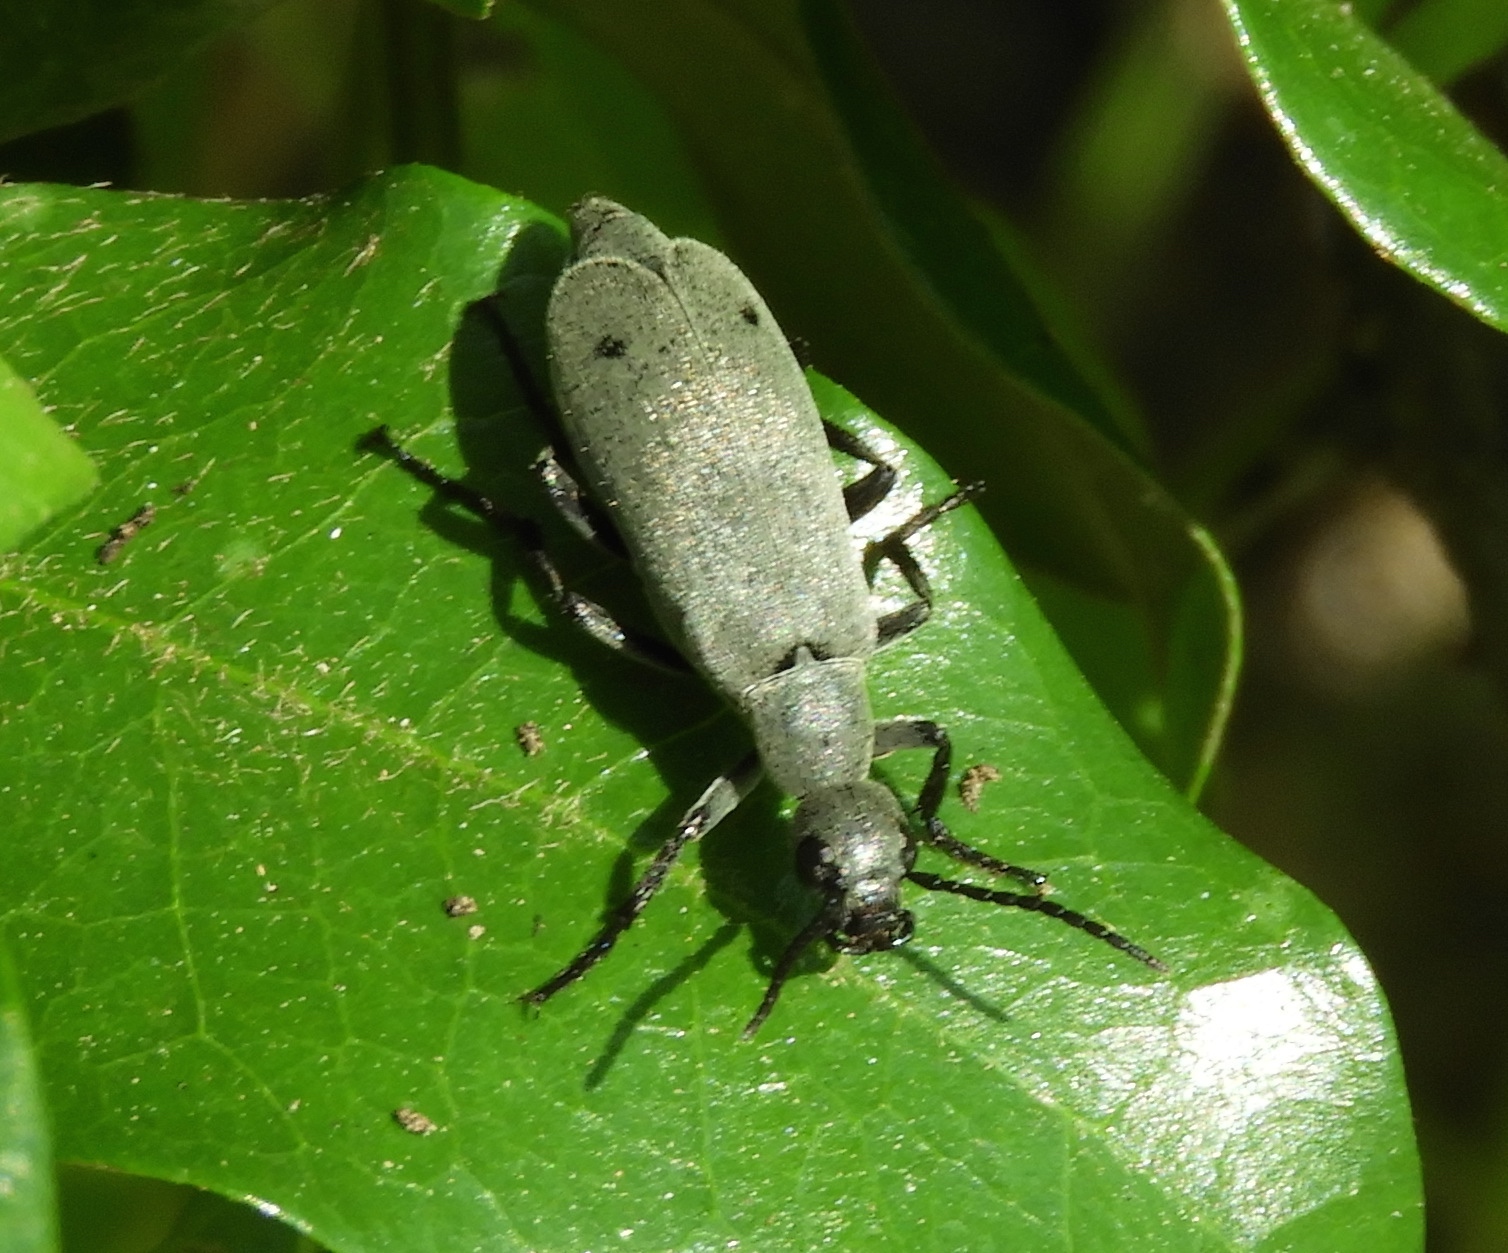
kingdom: Animalia
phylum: Arthropoda
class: Insecta
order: Coleoptera
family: Meloidae
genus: Epicauta
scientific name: Epicauta bipunctata
